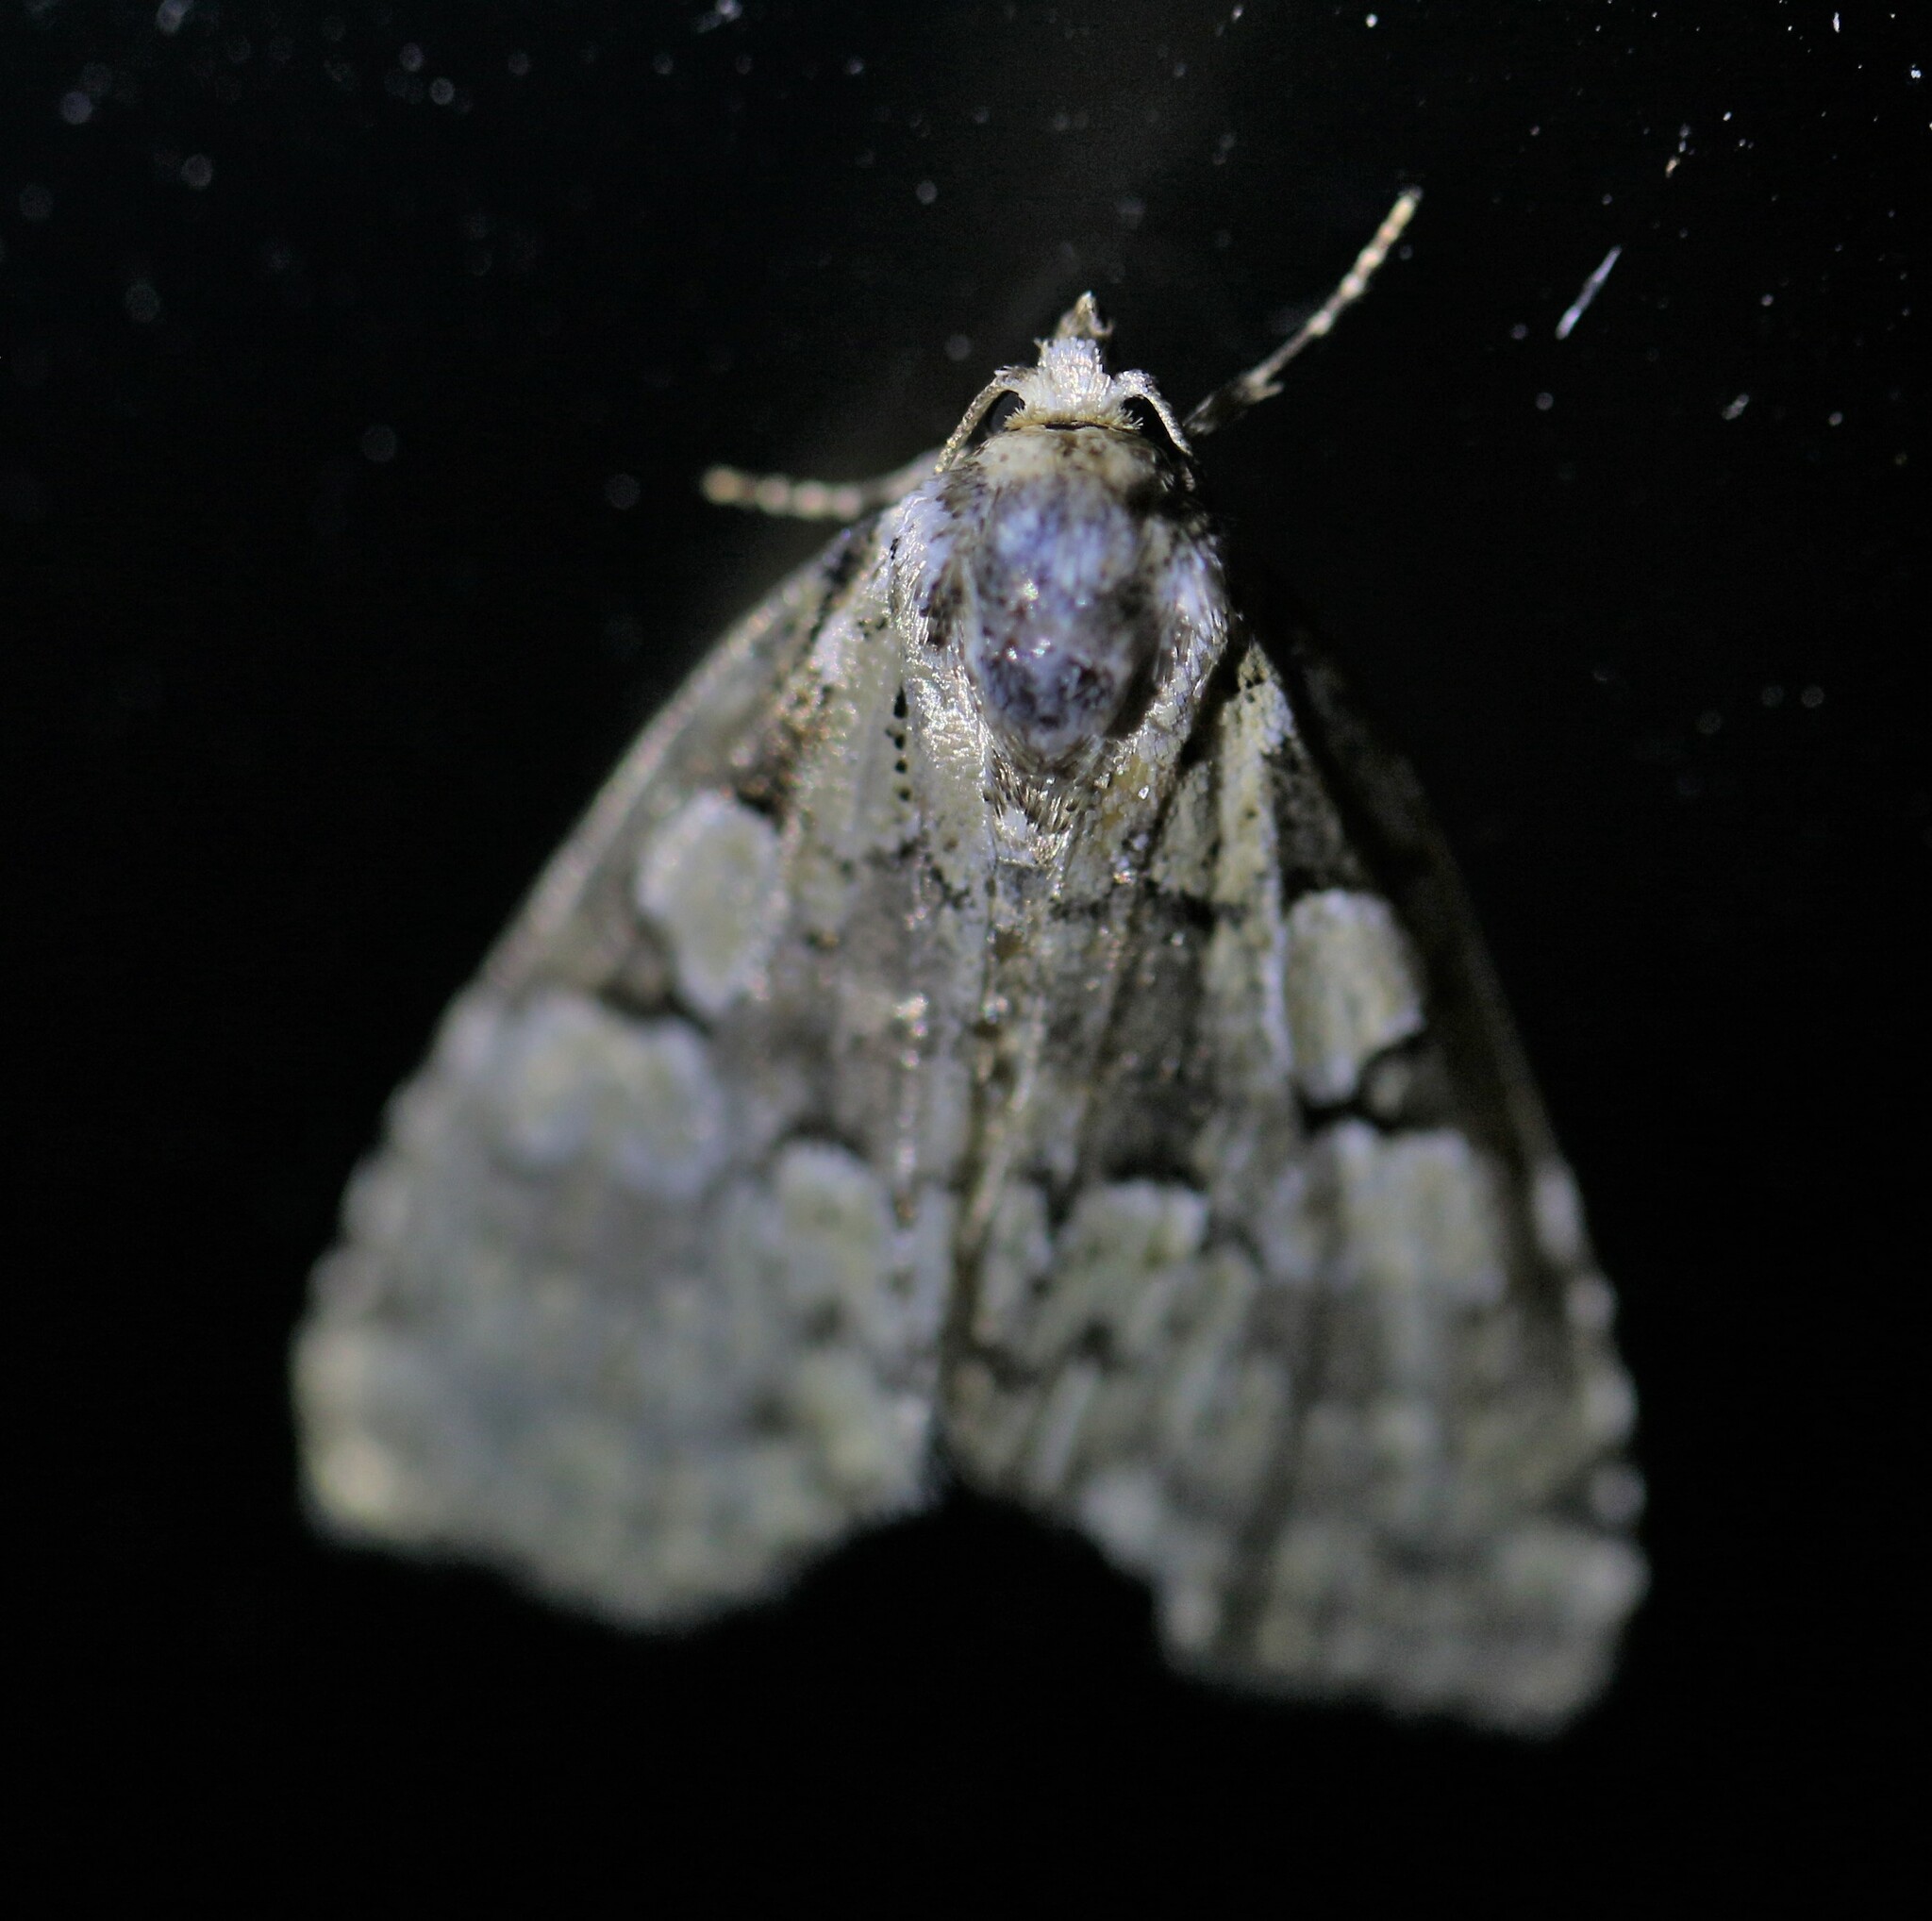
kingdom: Animalia
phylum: Arthropoda
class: Insecta
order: Lepidoptera
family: Noctuidae
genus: Leuconycta
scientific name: Leuconycta lepidula
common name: Marbled-green leuconycta moth
